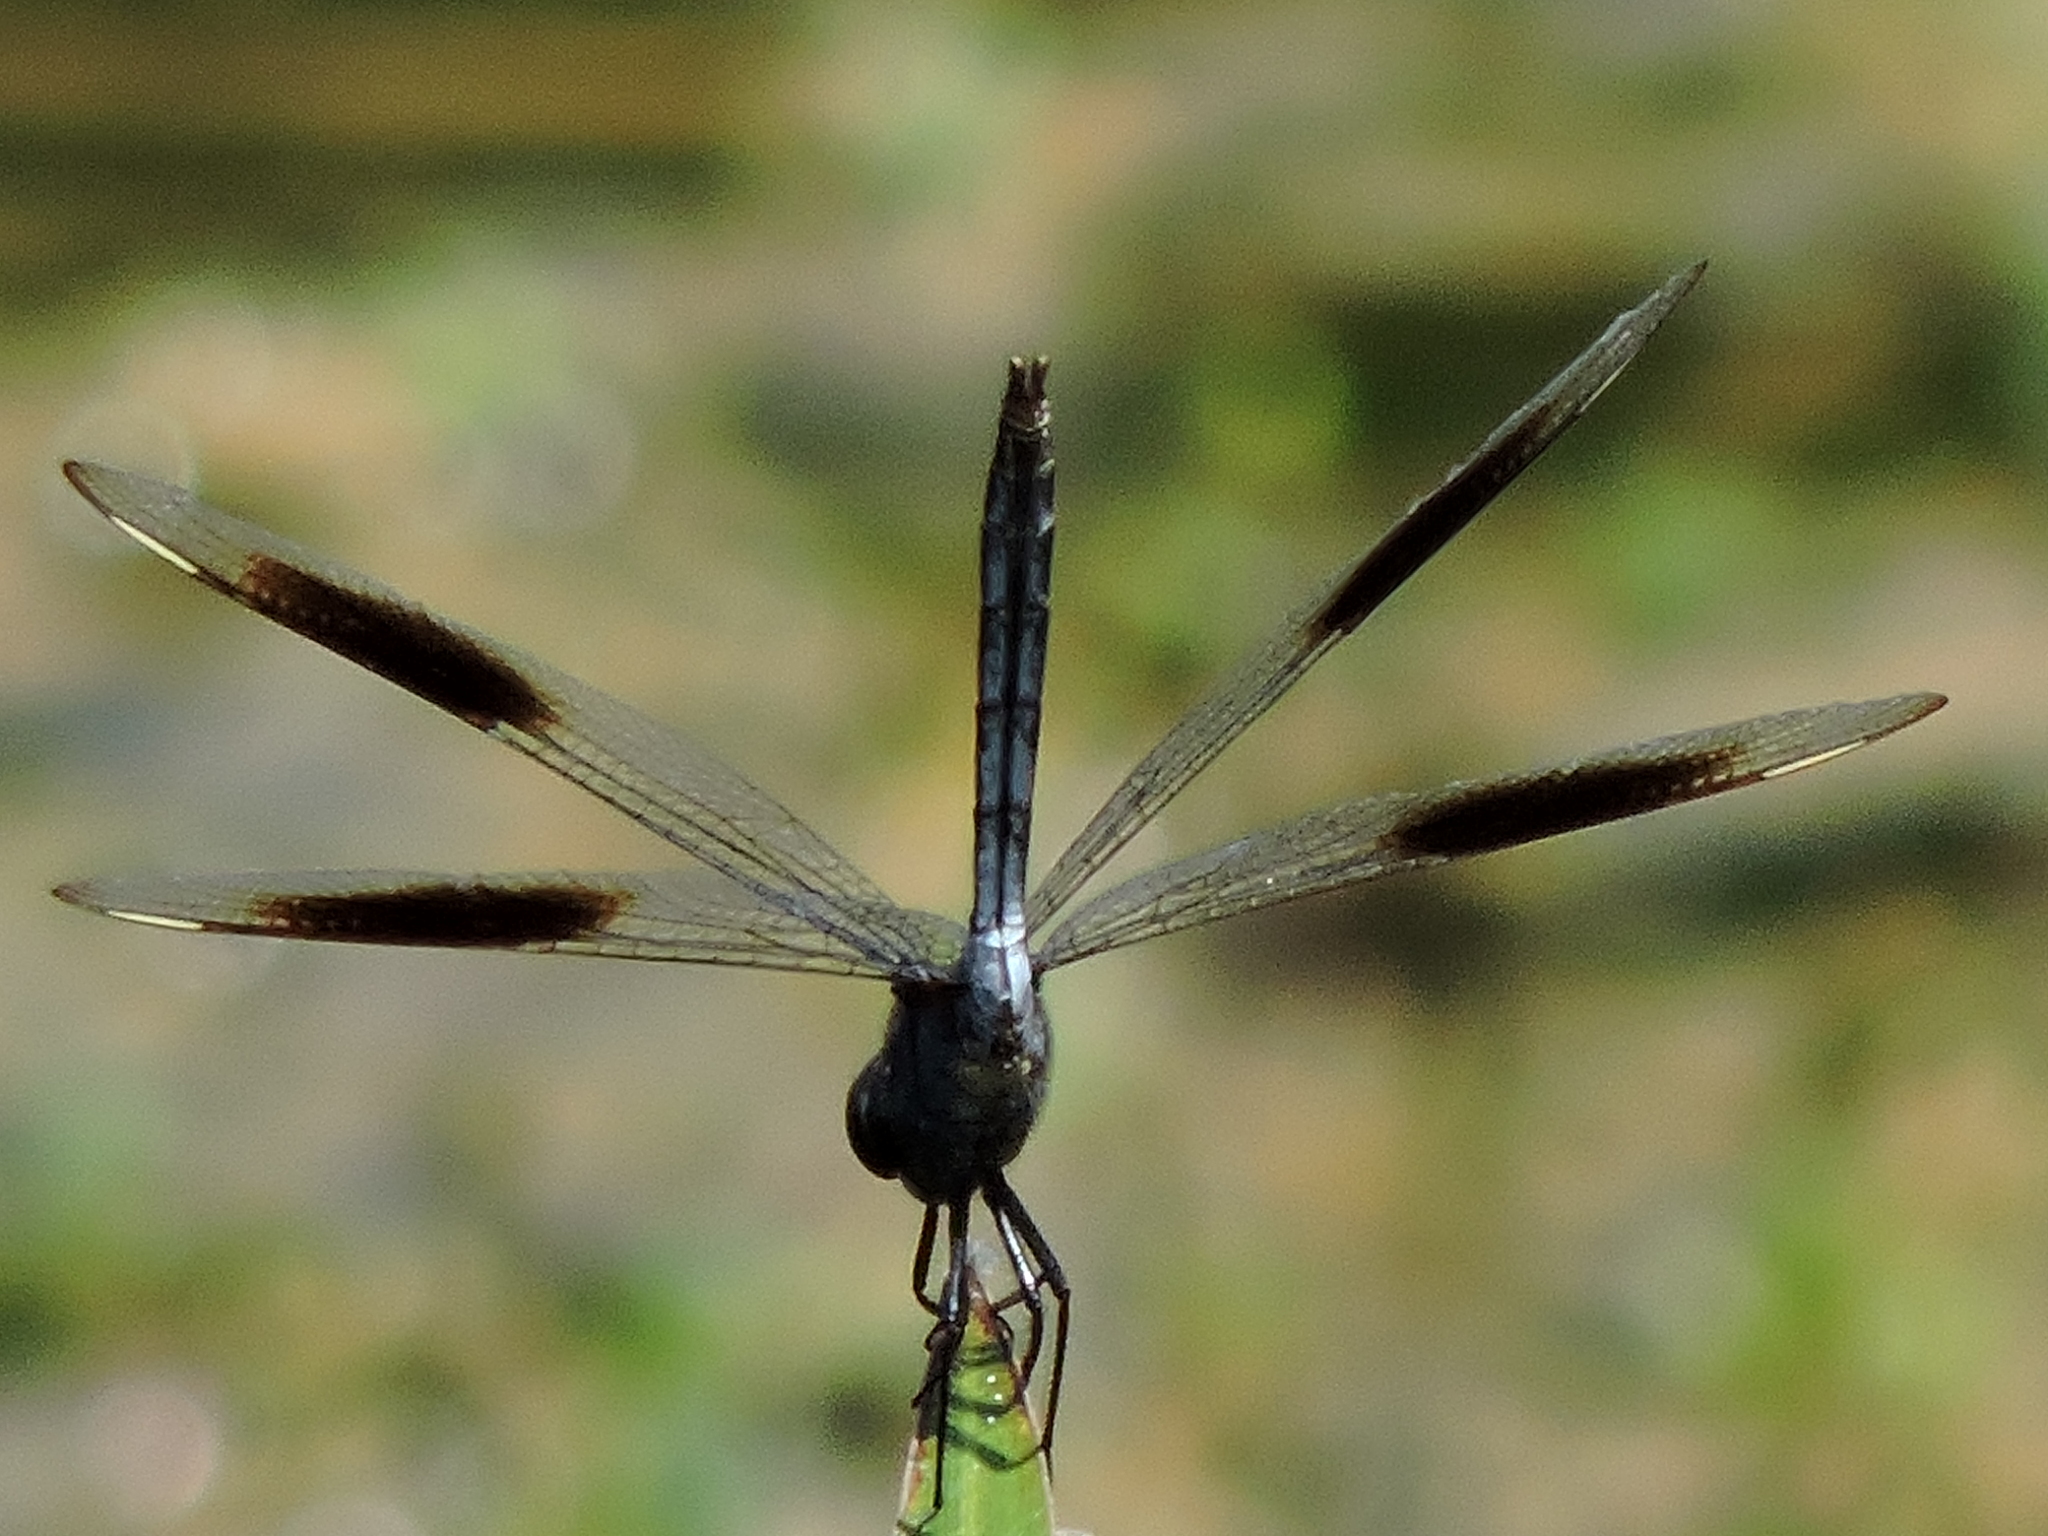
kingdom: Animalia
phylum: Arthropoda
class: Insecta
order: Odonata
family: Libellulidae
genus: Brachymesia
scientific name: Brachymesia gravida
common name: Four-spotted pennant
